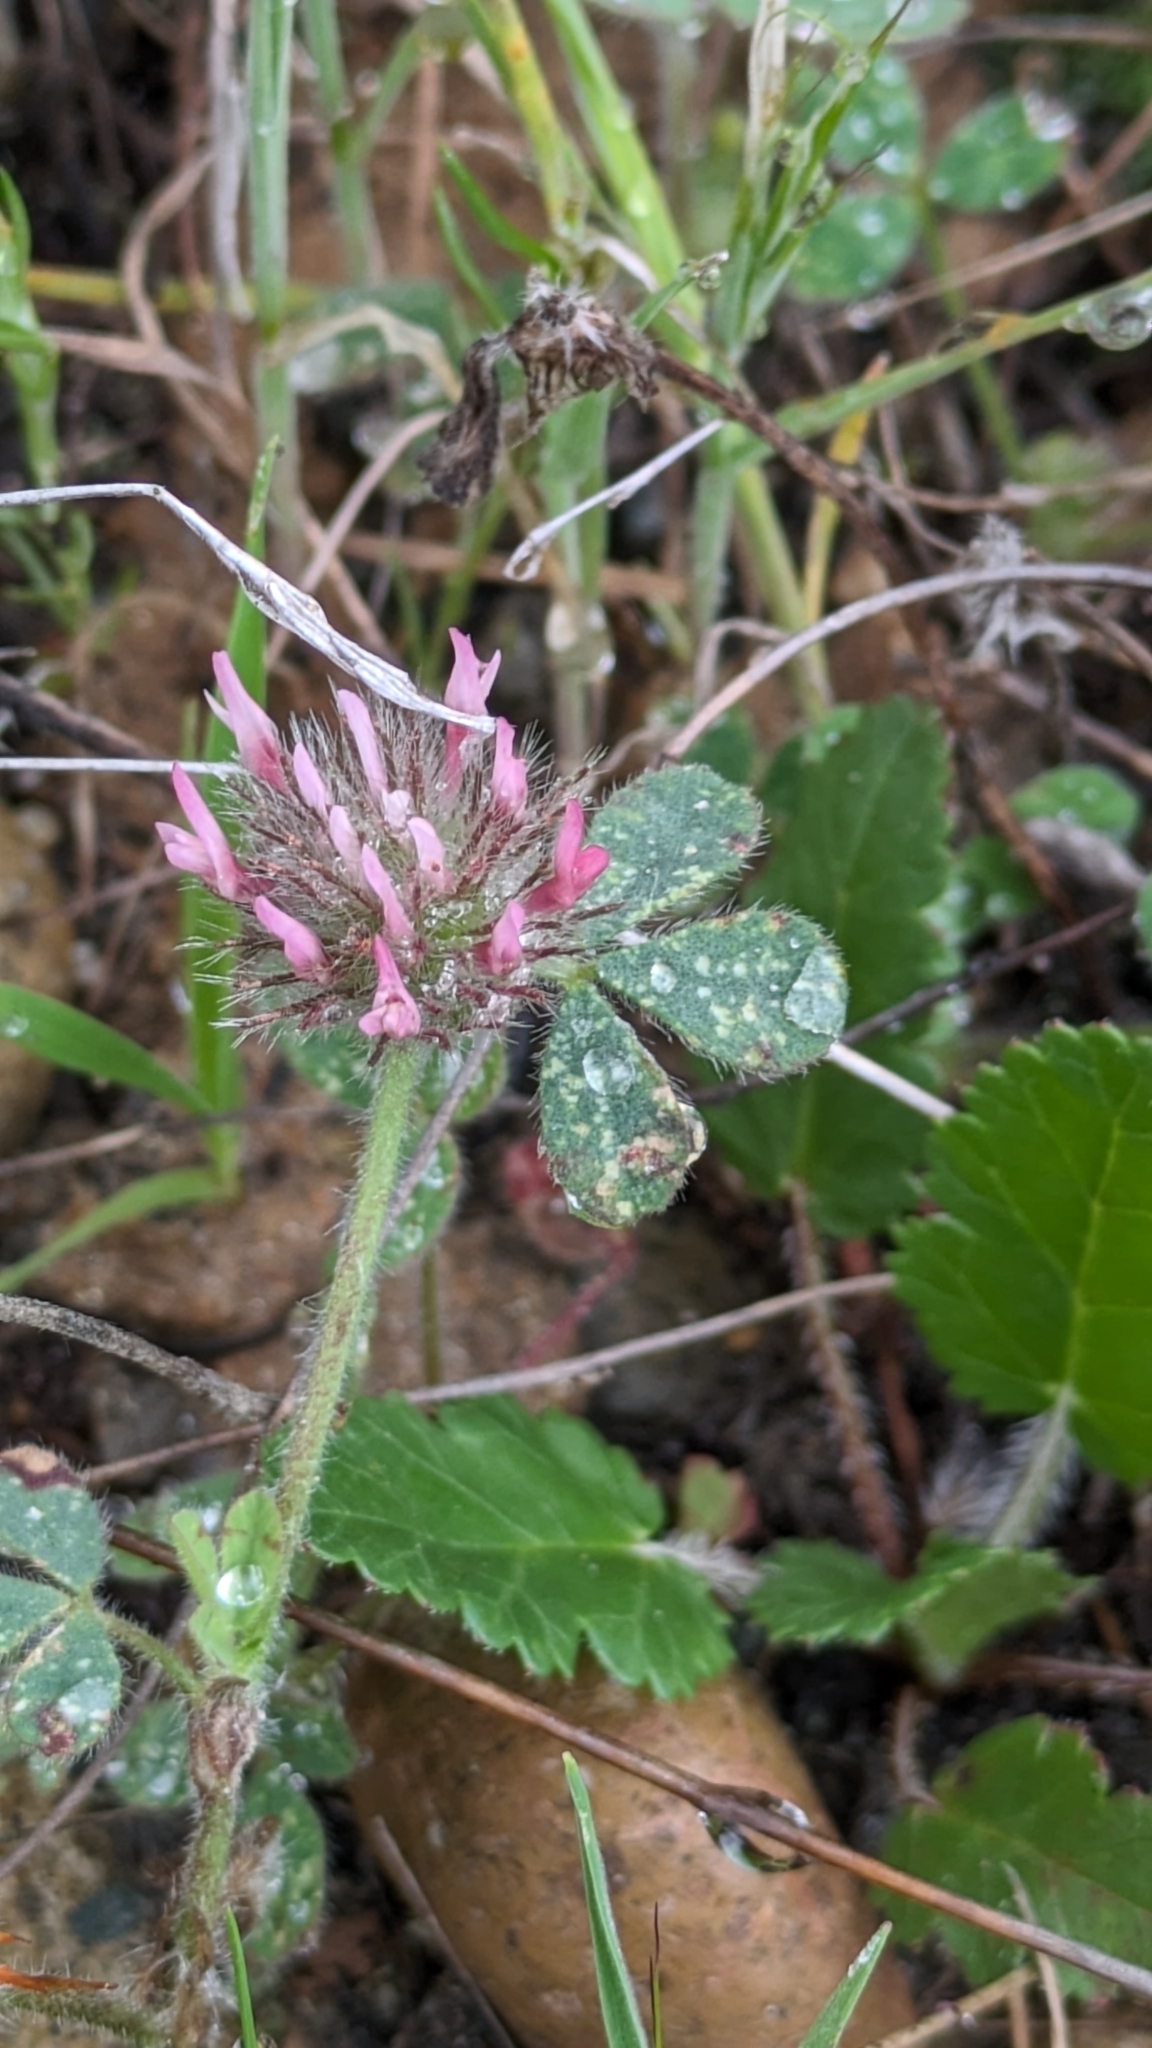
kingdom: Plantae
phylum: Tracheophyta
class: Magnoliopsida
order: Fabales
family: Fabaceae
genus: Trifolium
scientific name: Trifolium hirtum
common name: Rose clover
